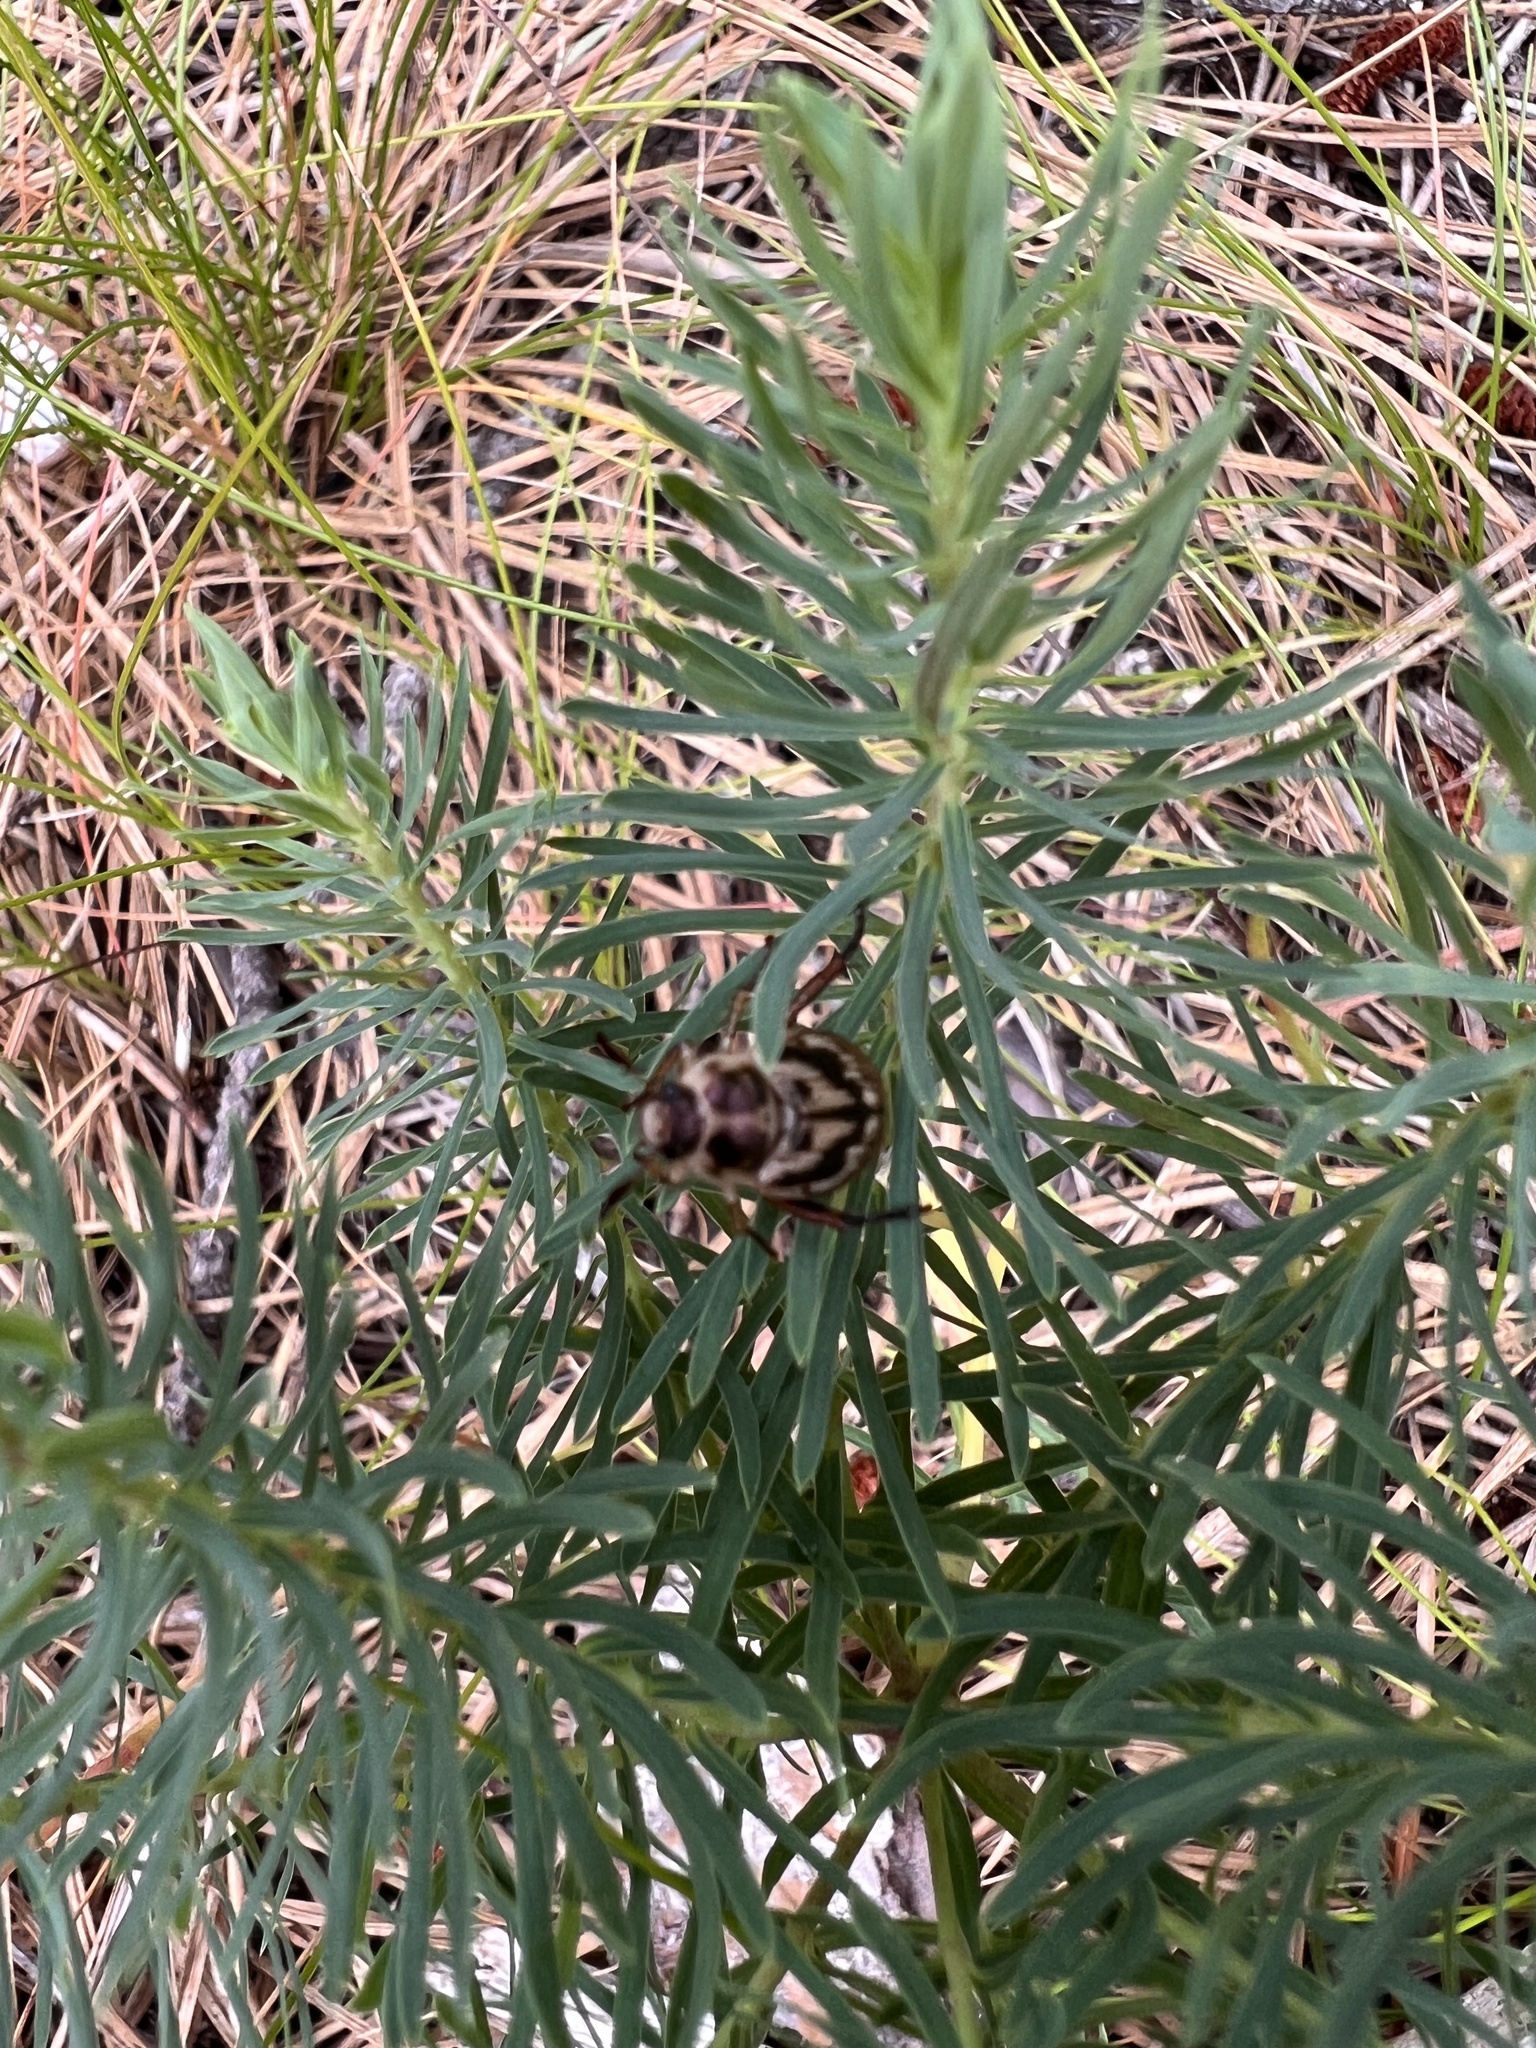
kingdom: Animalia
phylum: Arthropoda
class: Insecta
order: Coleoptera
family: Scarabaeidae
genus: Exomala
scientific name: Exomala orientalis
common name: Oriental beetle
